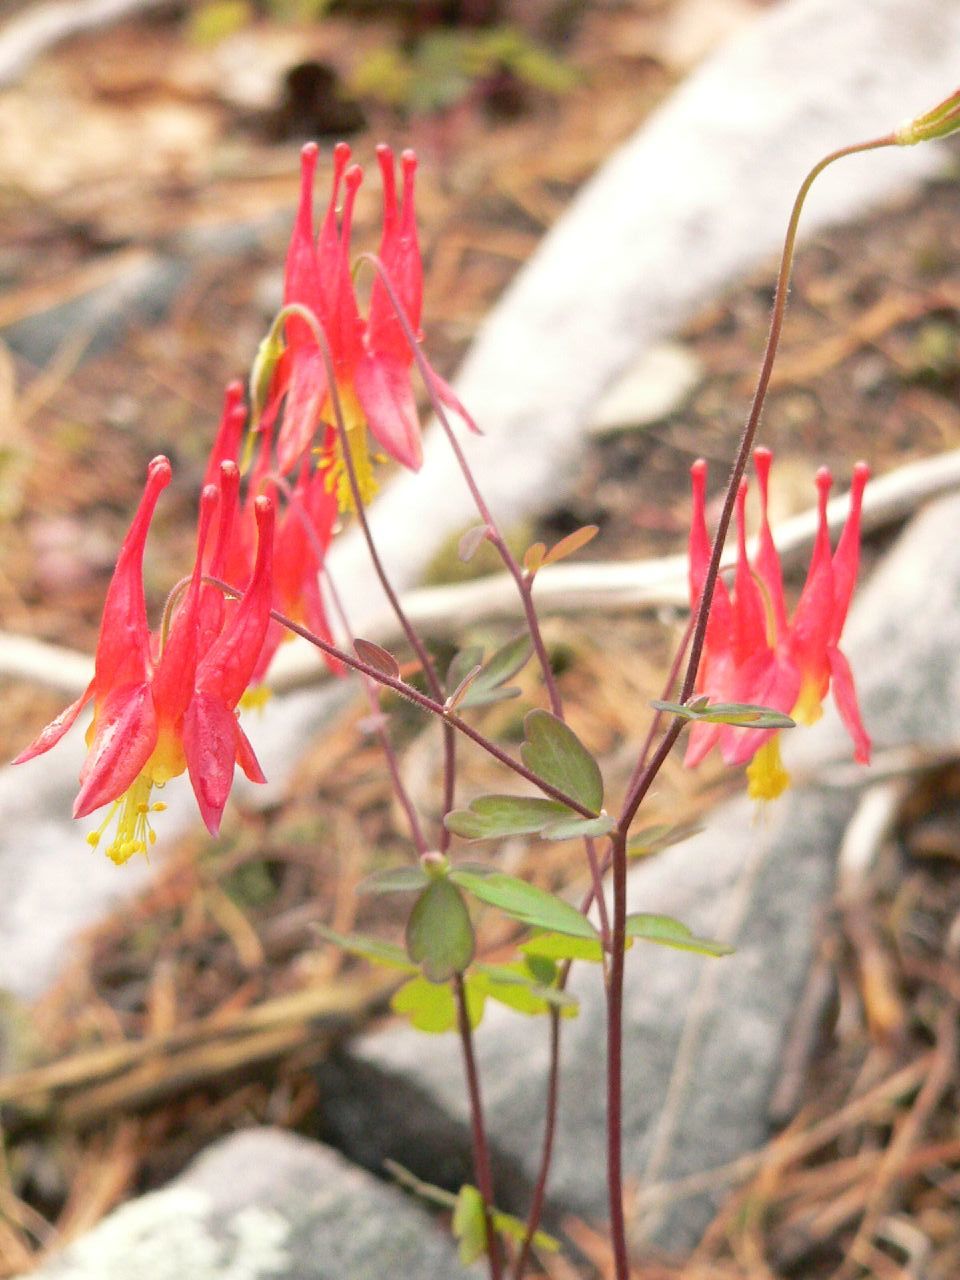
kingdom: Plantae
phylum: Tracheophyta
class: Magnoliopsida
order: Ranunculales
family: Ranunculaceae
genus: Aquilegia
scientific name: Aquilegia canadensis
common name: American columbine
